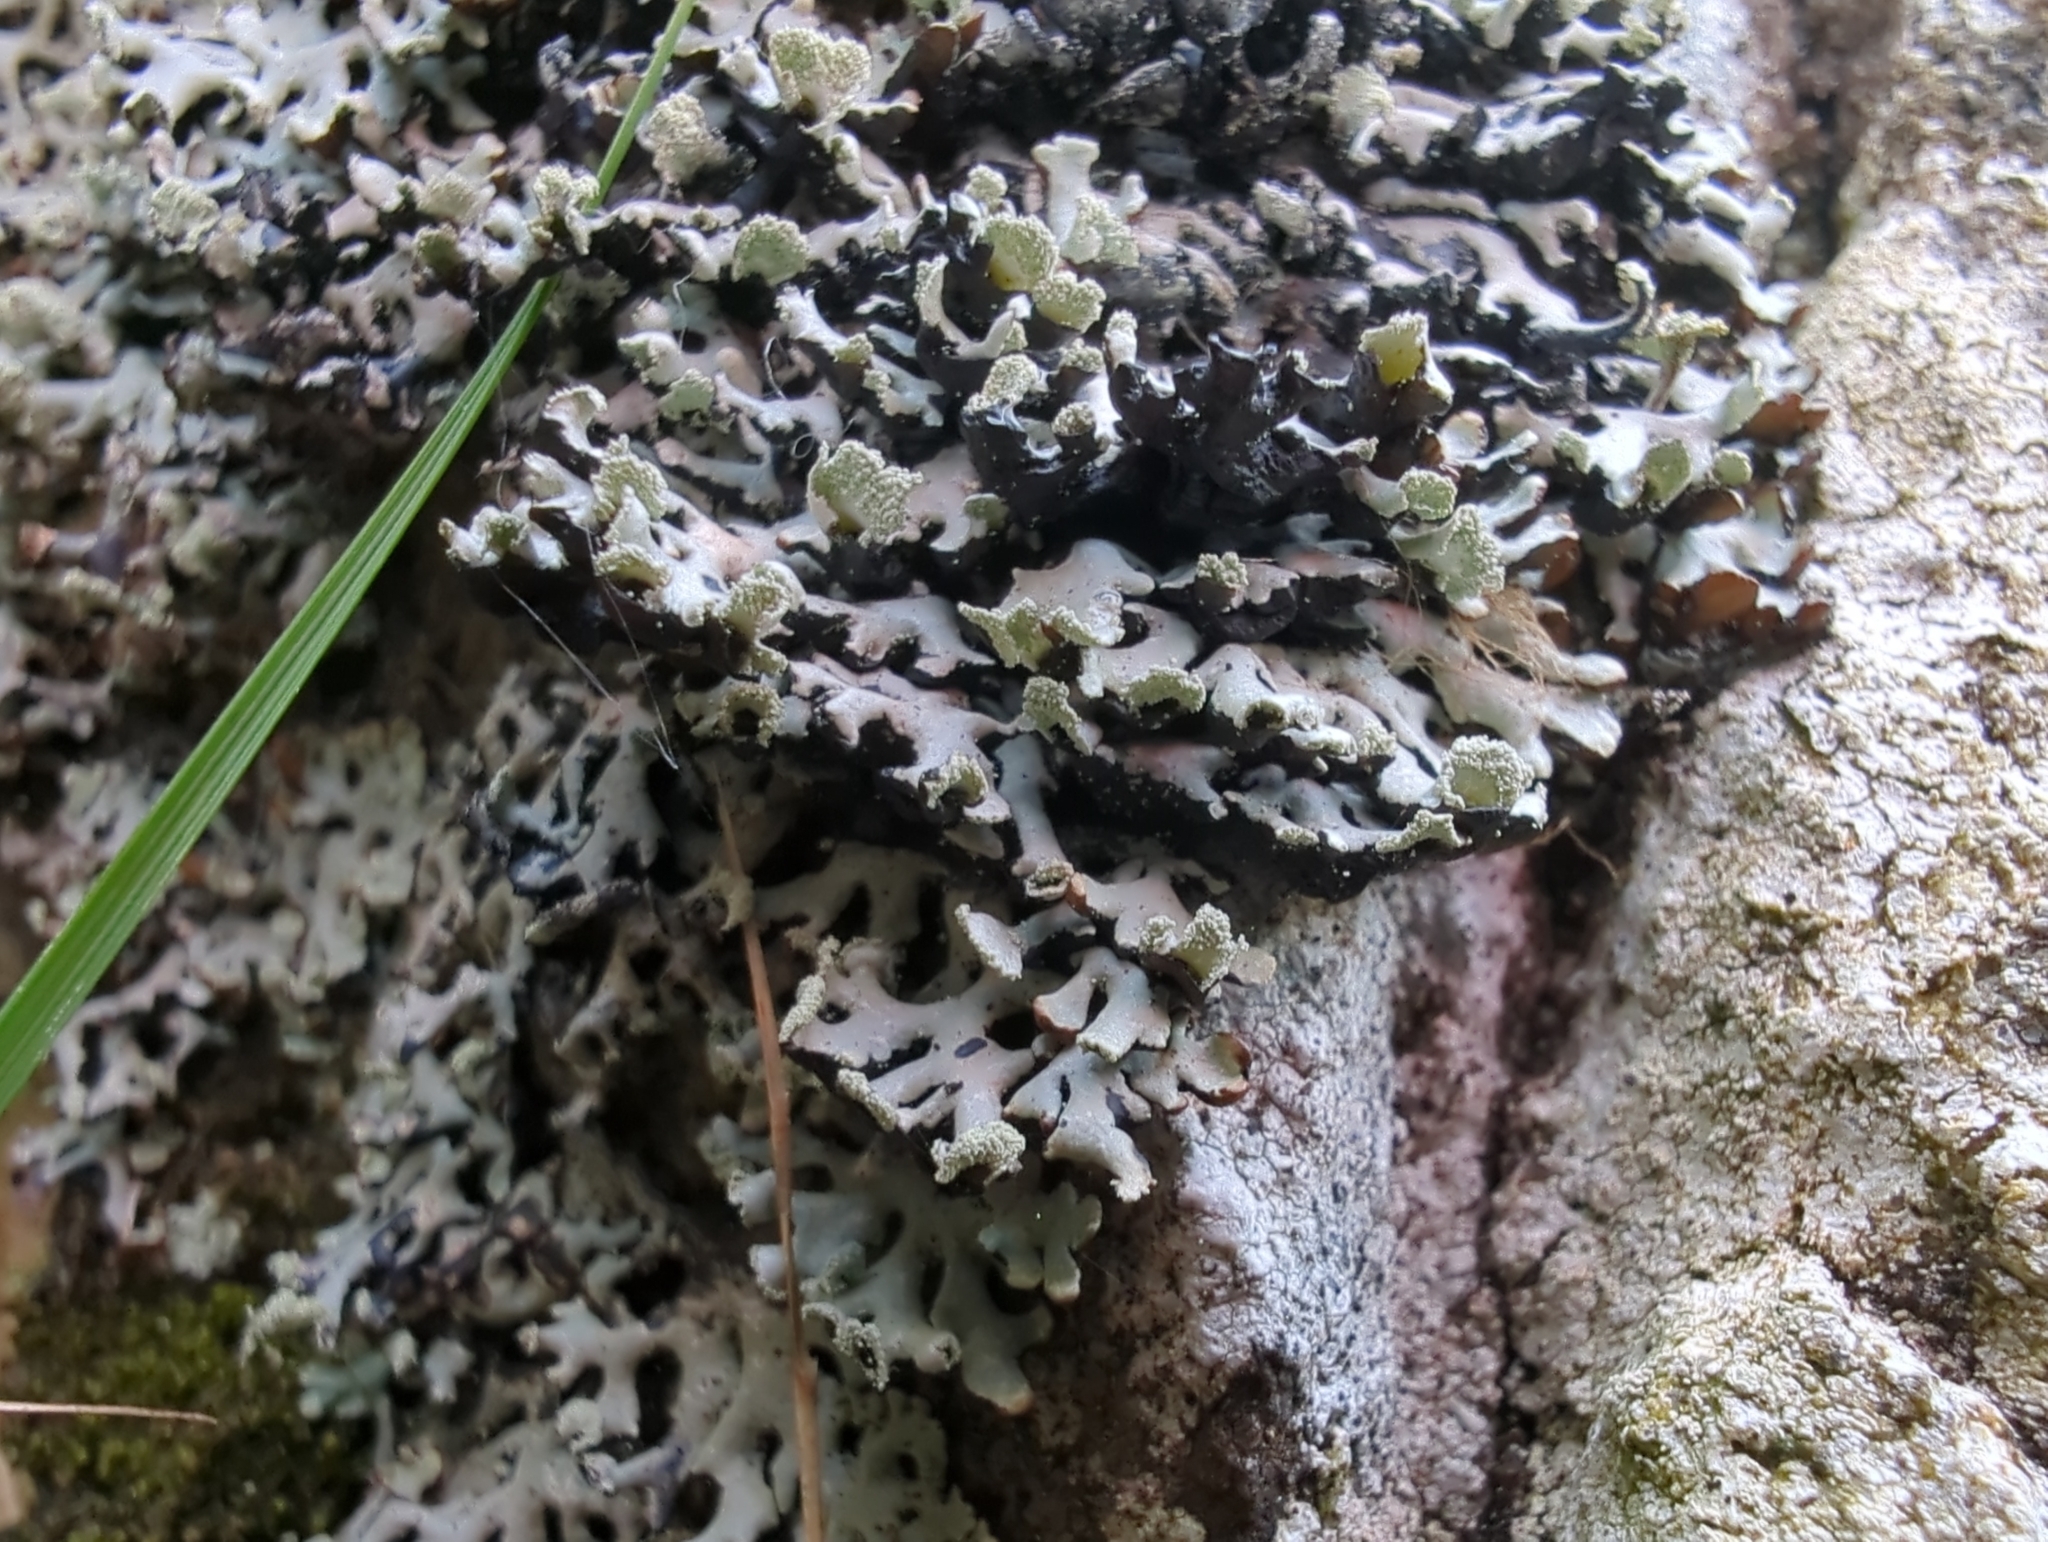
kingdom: Fungi
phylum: Ascomycota
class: Lecanoromycetes
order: Lecanorales
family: Parmeliaceae
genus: Hypogymnia
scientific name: Hypogymnia physodes
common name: Dark crottle
